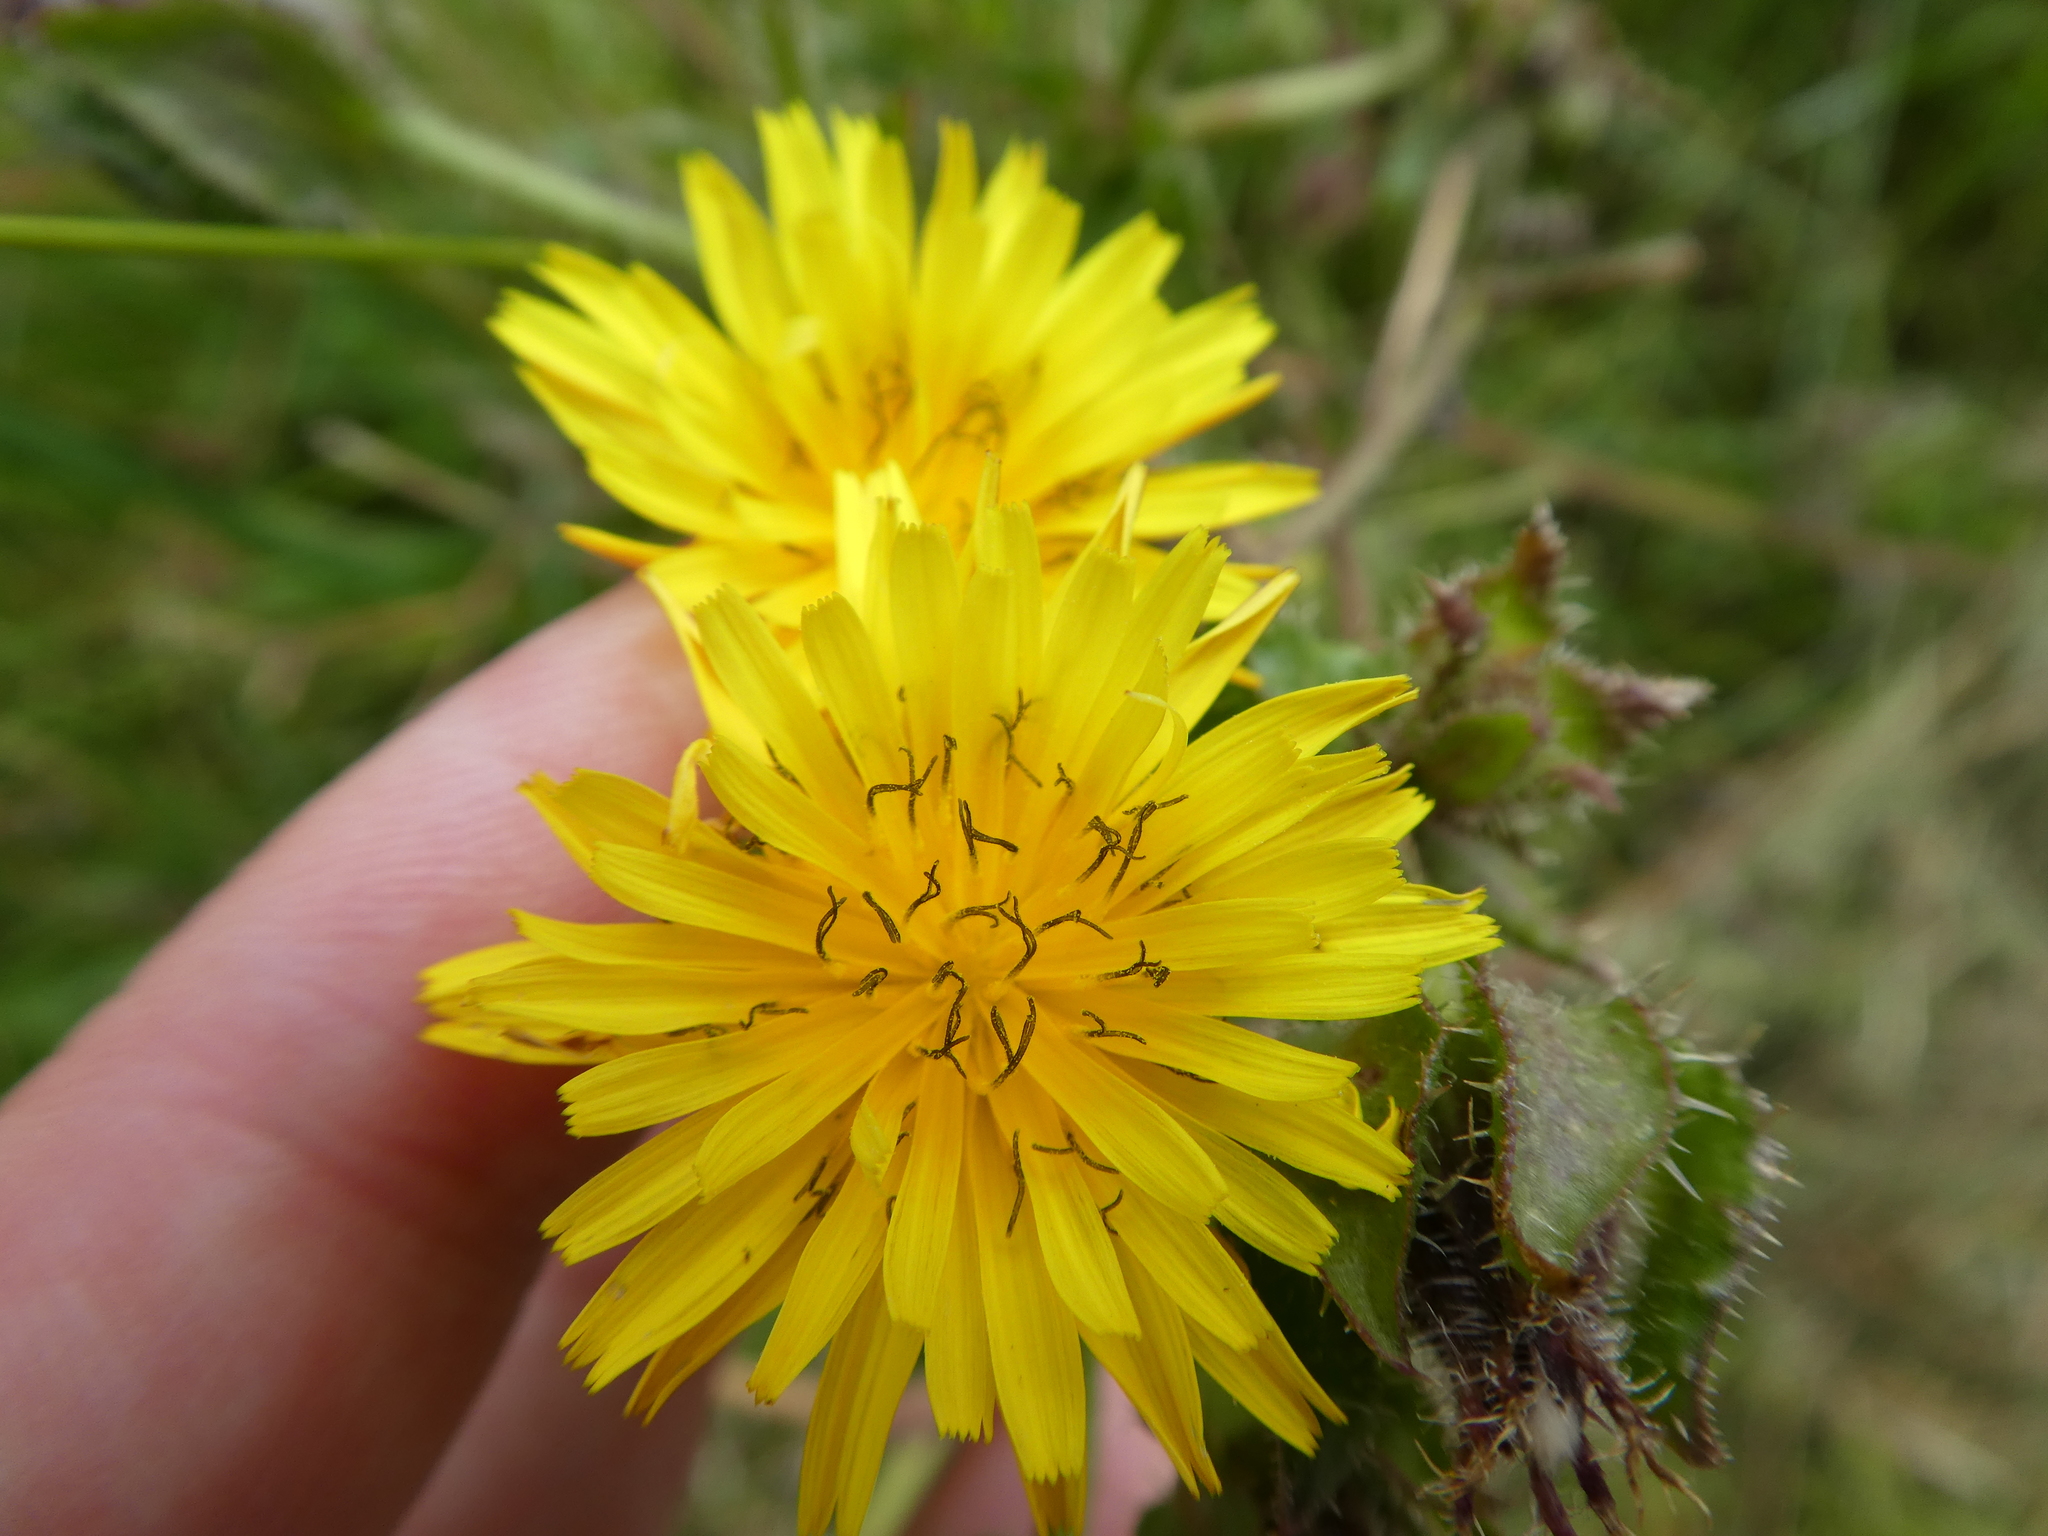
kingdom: Plantae
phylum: Tracheophyta
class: Magnoliopsida
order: Asterales
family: Asteraceae
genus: Helminthotheca
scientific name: Helminthotheca echioides
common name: Ox-tongue
